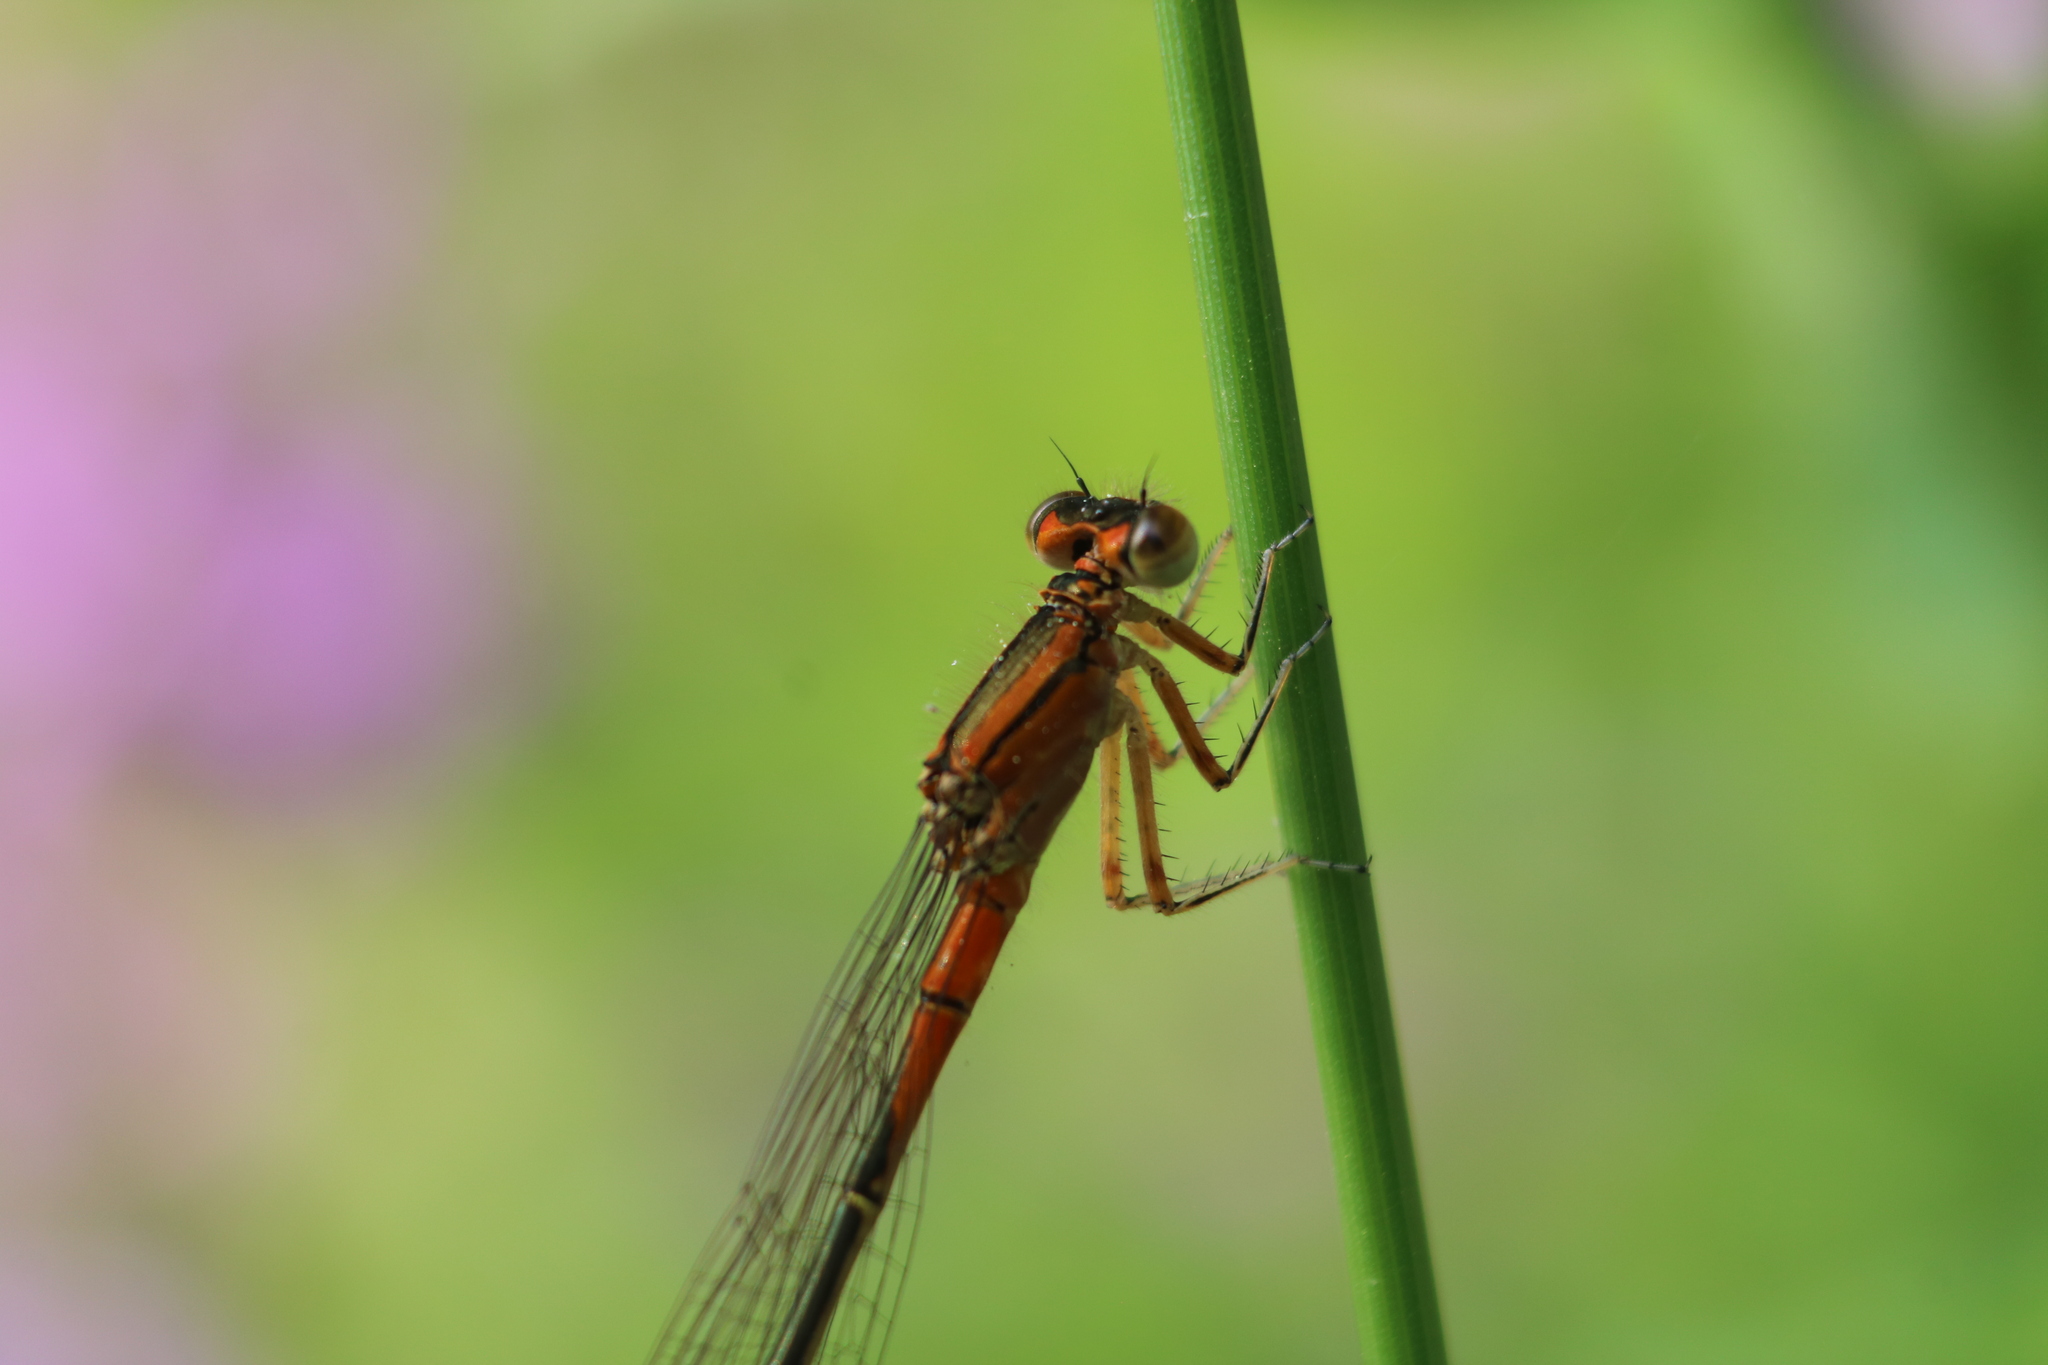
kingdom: Animalia
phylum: Arthropoda
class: Insecta
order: Odonata
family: Coenagrionidae
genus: Ischnura
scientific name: Ischnura verticalis
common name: Eastern forktail
